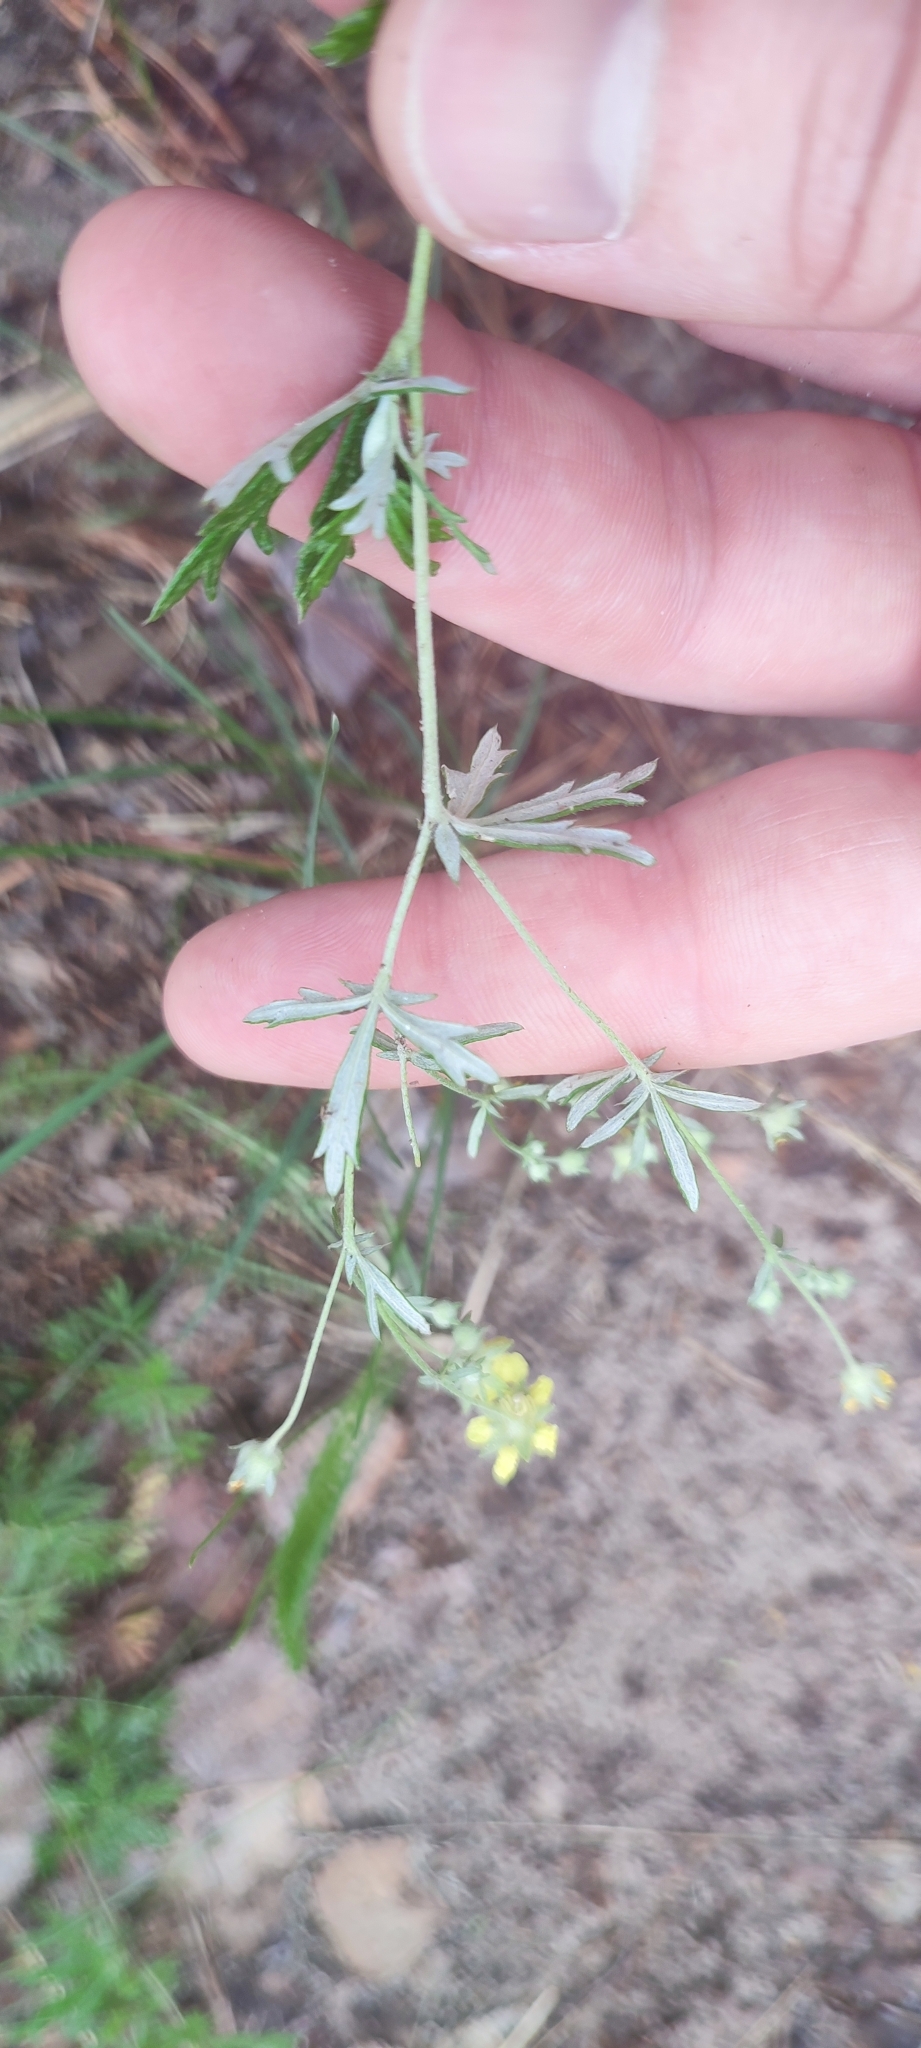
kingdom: Plantae
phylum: Tracheophyta
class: Magnoliopsida
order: Rosales
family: Rosaceae
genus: Potentilla
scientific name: Potentilla argentea
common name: Hoary cinquefoil
